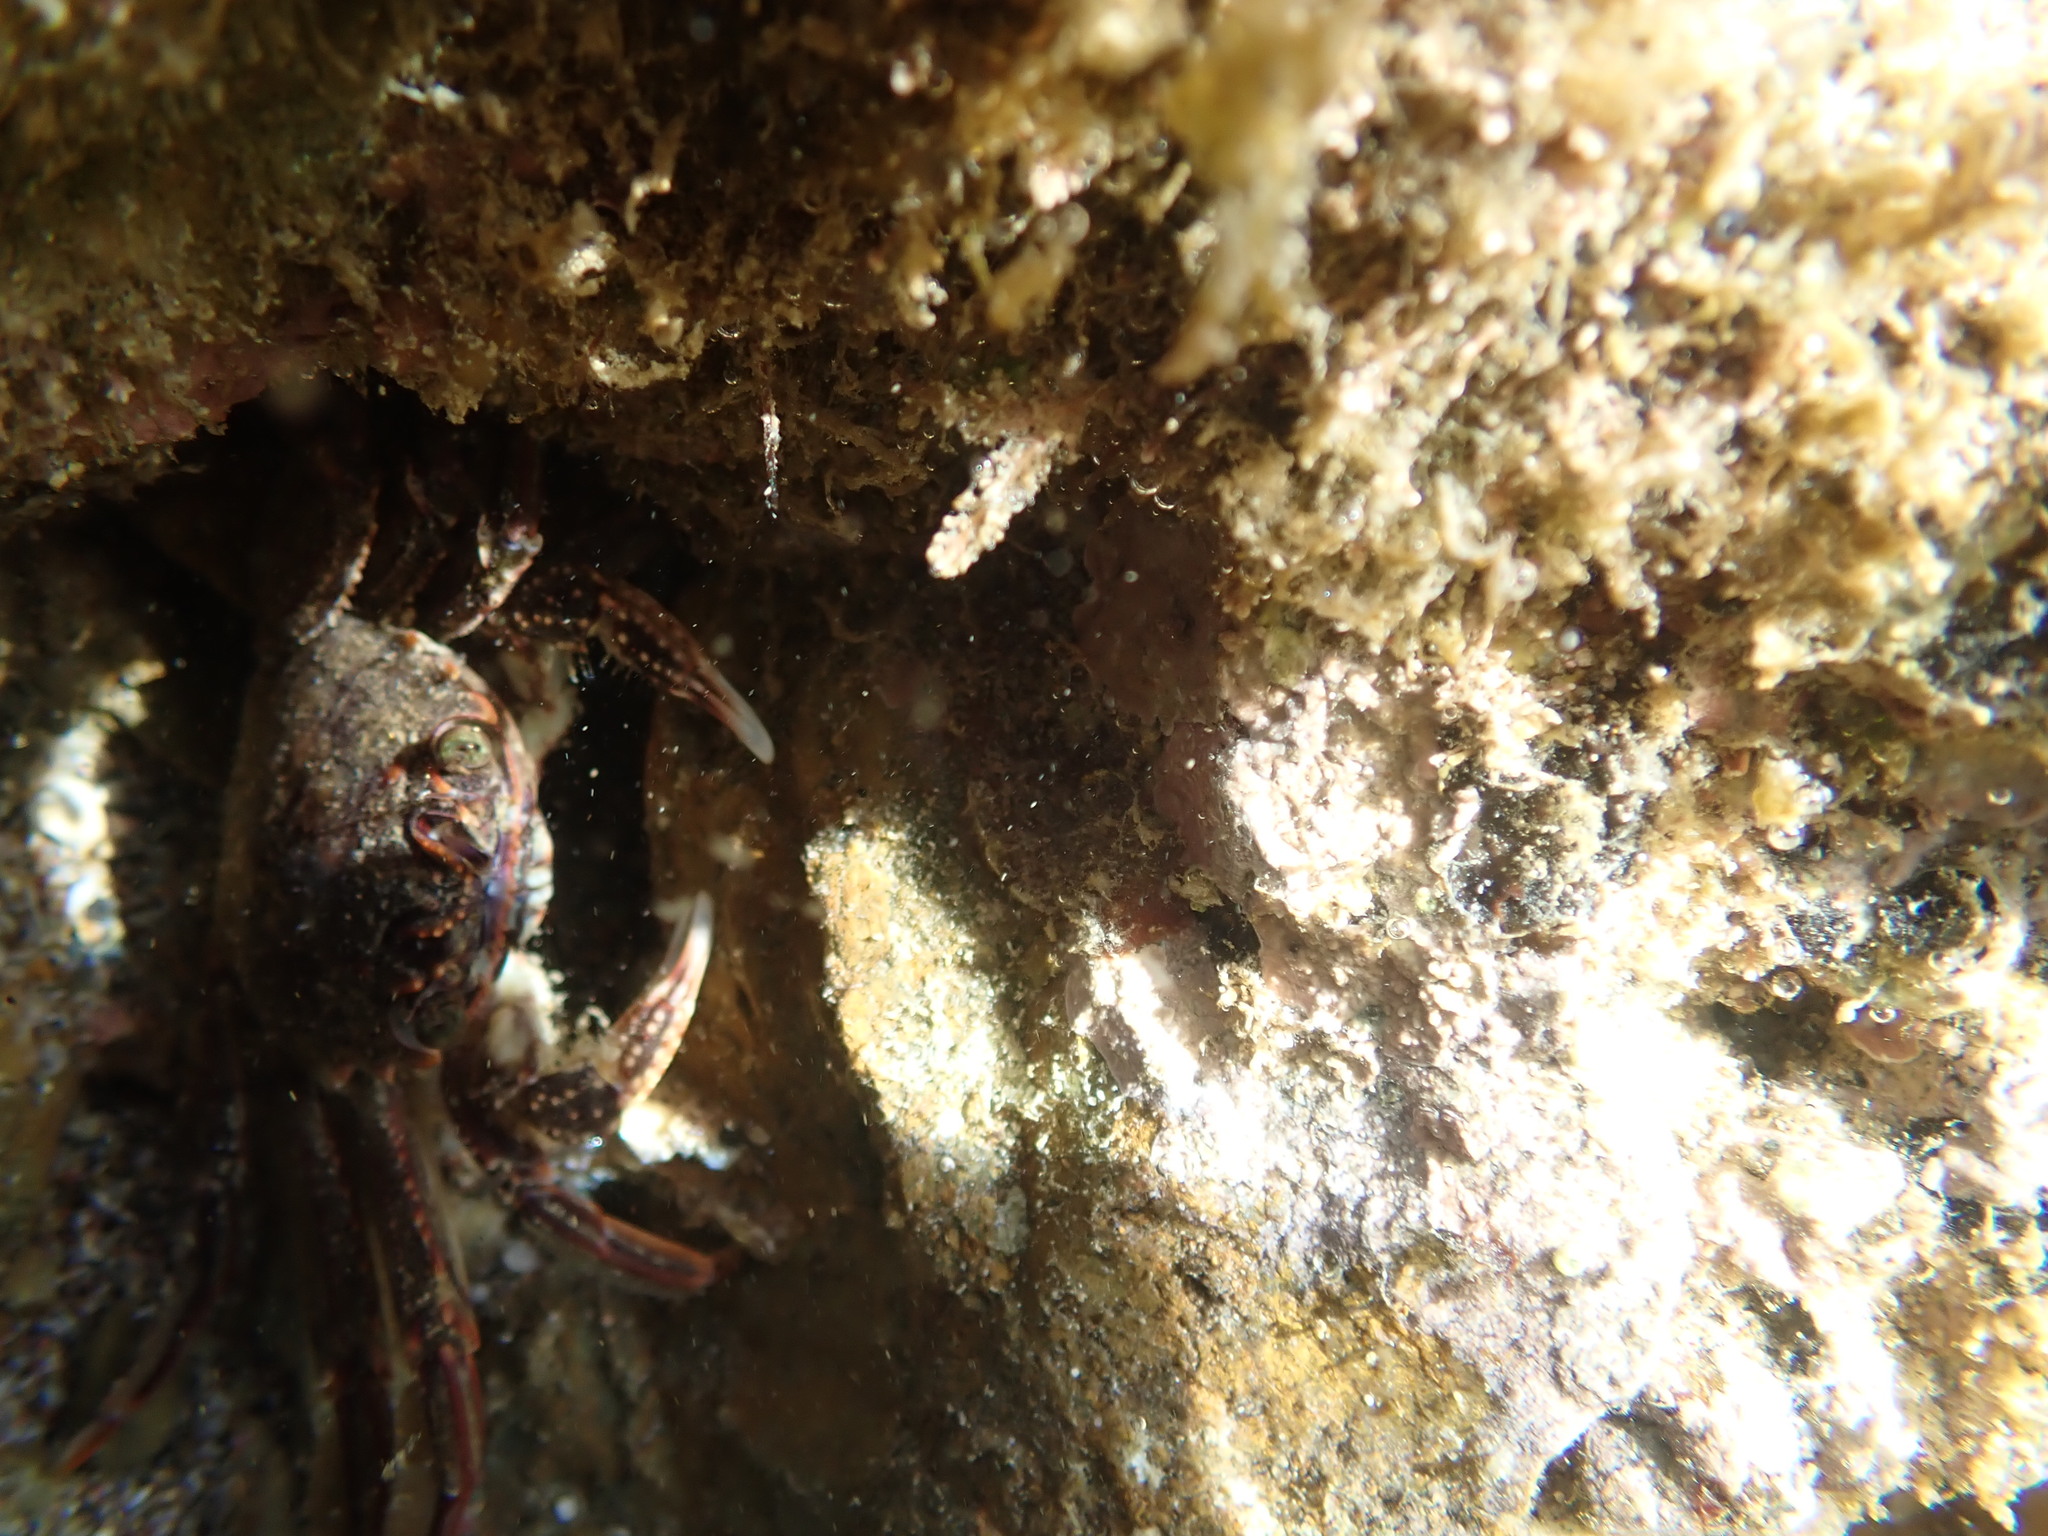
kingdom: Animalia
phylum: Arthropoda
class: Malacostraca
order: Decapoda
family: Plagusiidae
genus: Guinusia
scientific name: Guinusia chabrus
